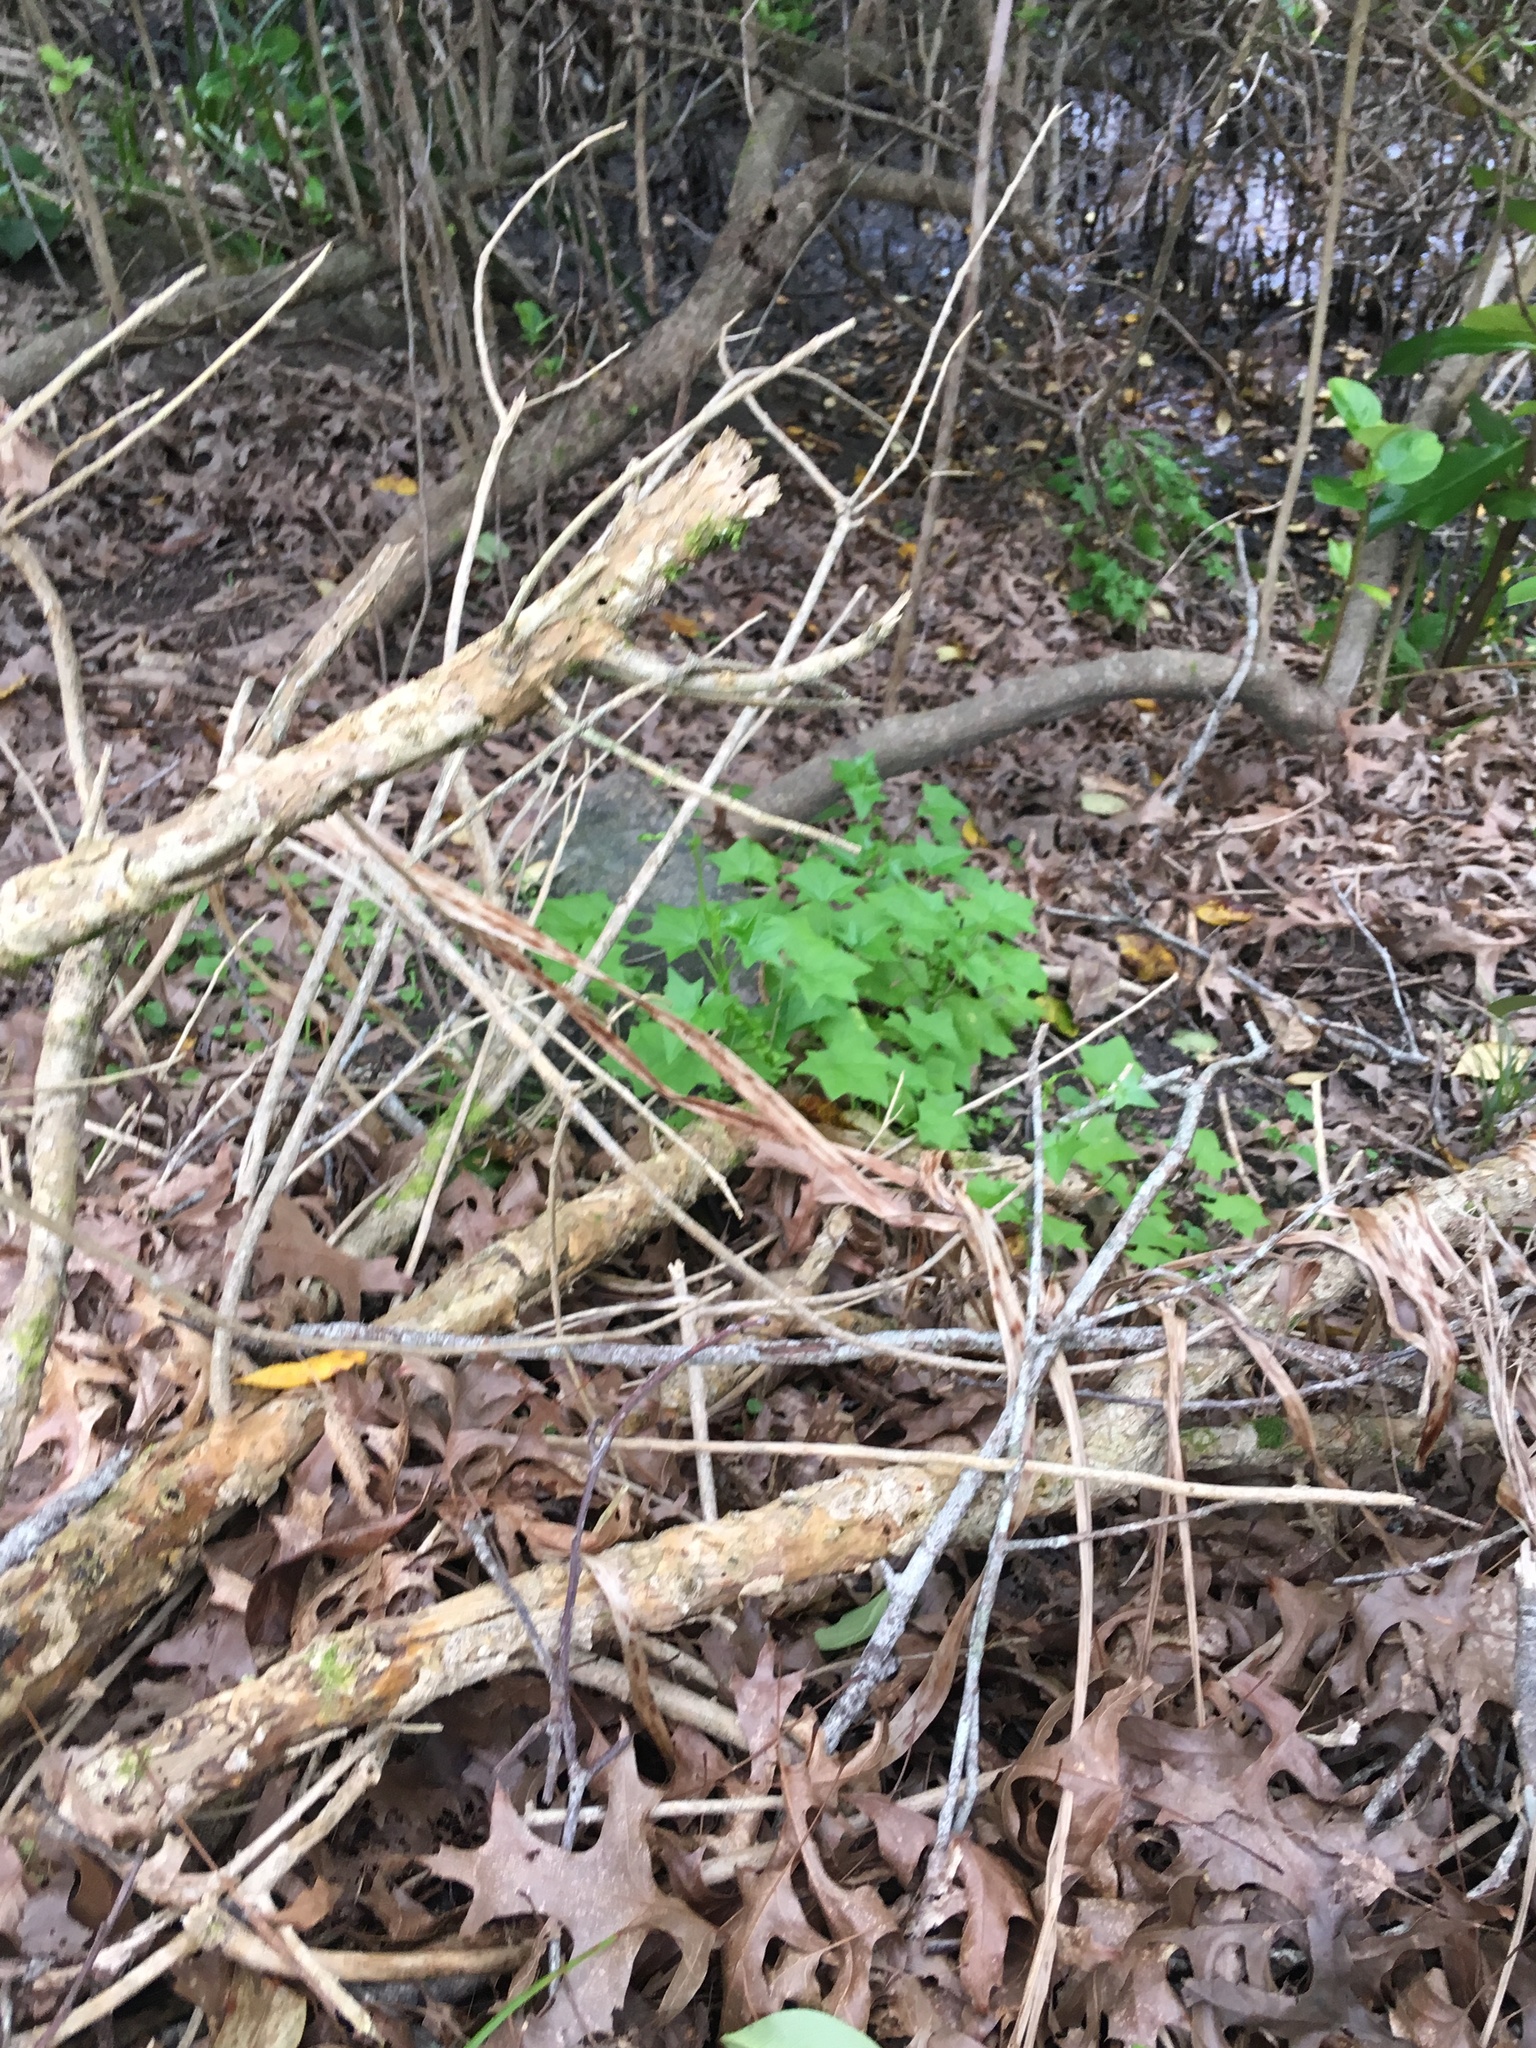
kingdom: Plantae
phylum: Tracheophyta
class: Magnoliopsida
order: Asterales
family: Asteraceae
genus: Delairea
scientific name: Delairea odorata
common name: Cape-ivy
